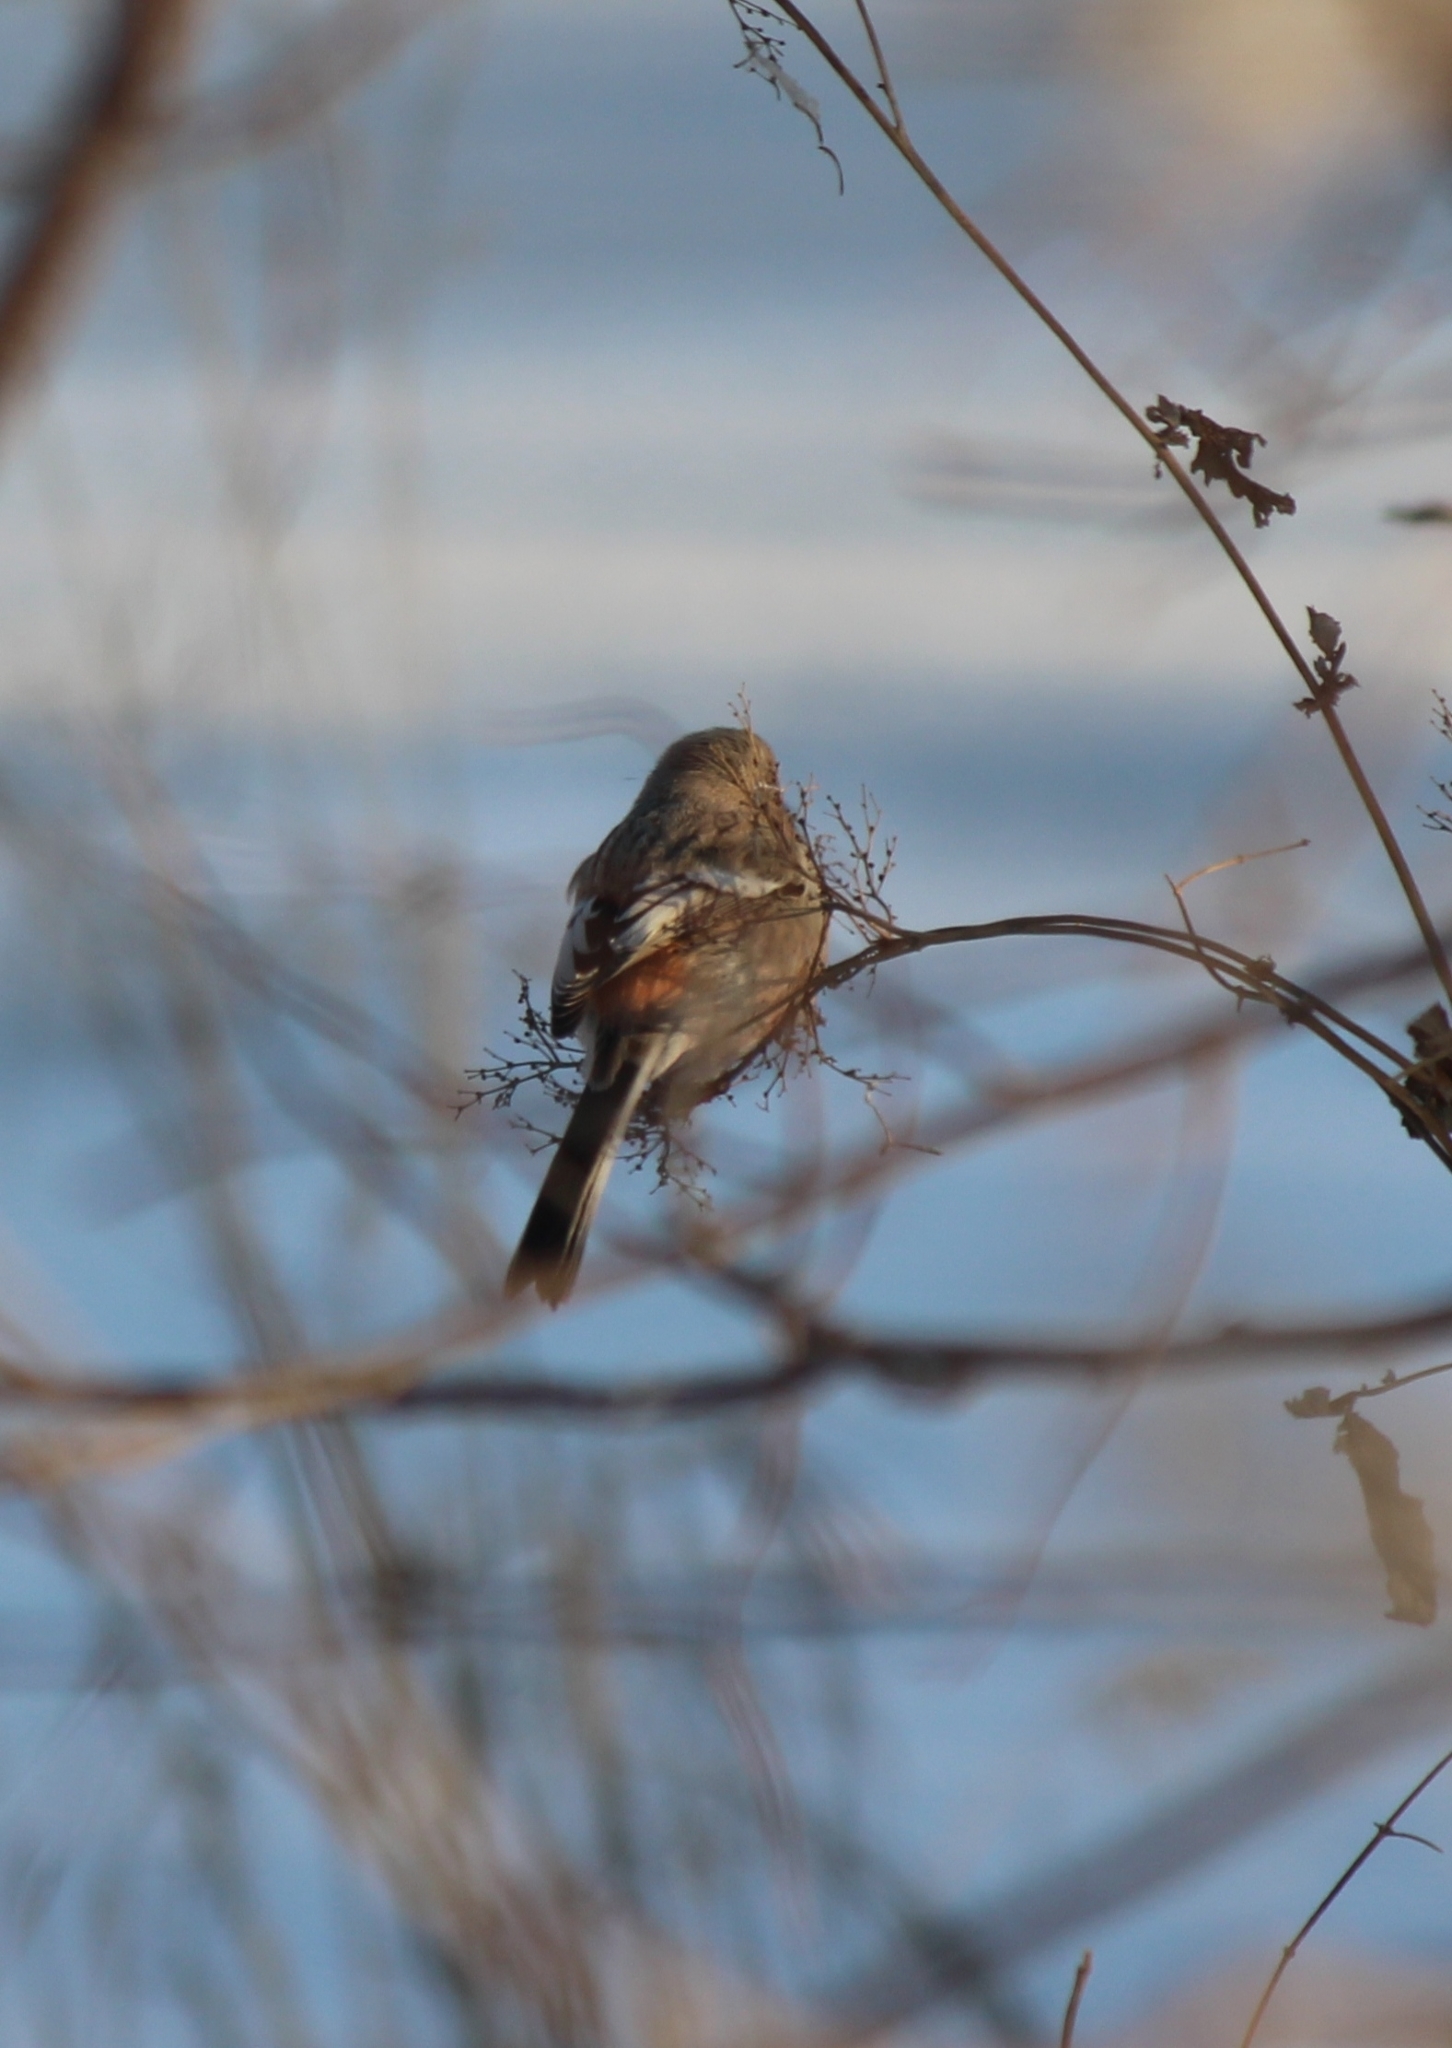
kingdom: Animalia
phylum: Chordata
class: Aves
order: Passeriformes
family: Fringillidae
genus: Carpodacus
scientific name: Carpodacus sibiricus
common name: Long-tailed rosefinch
